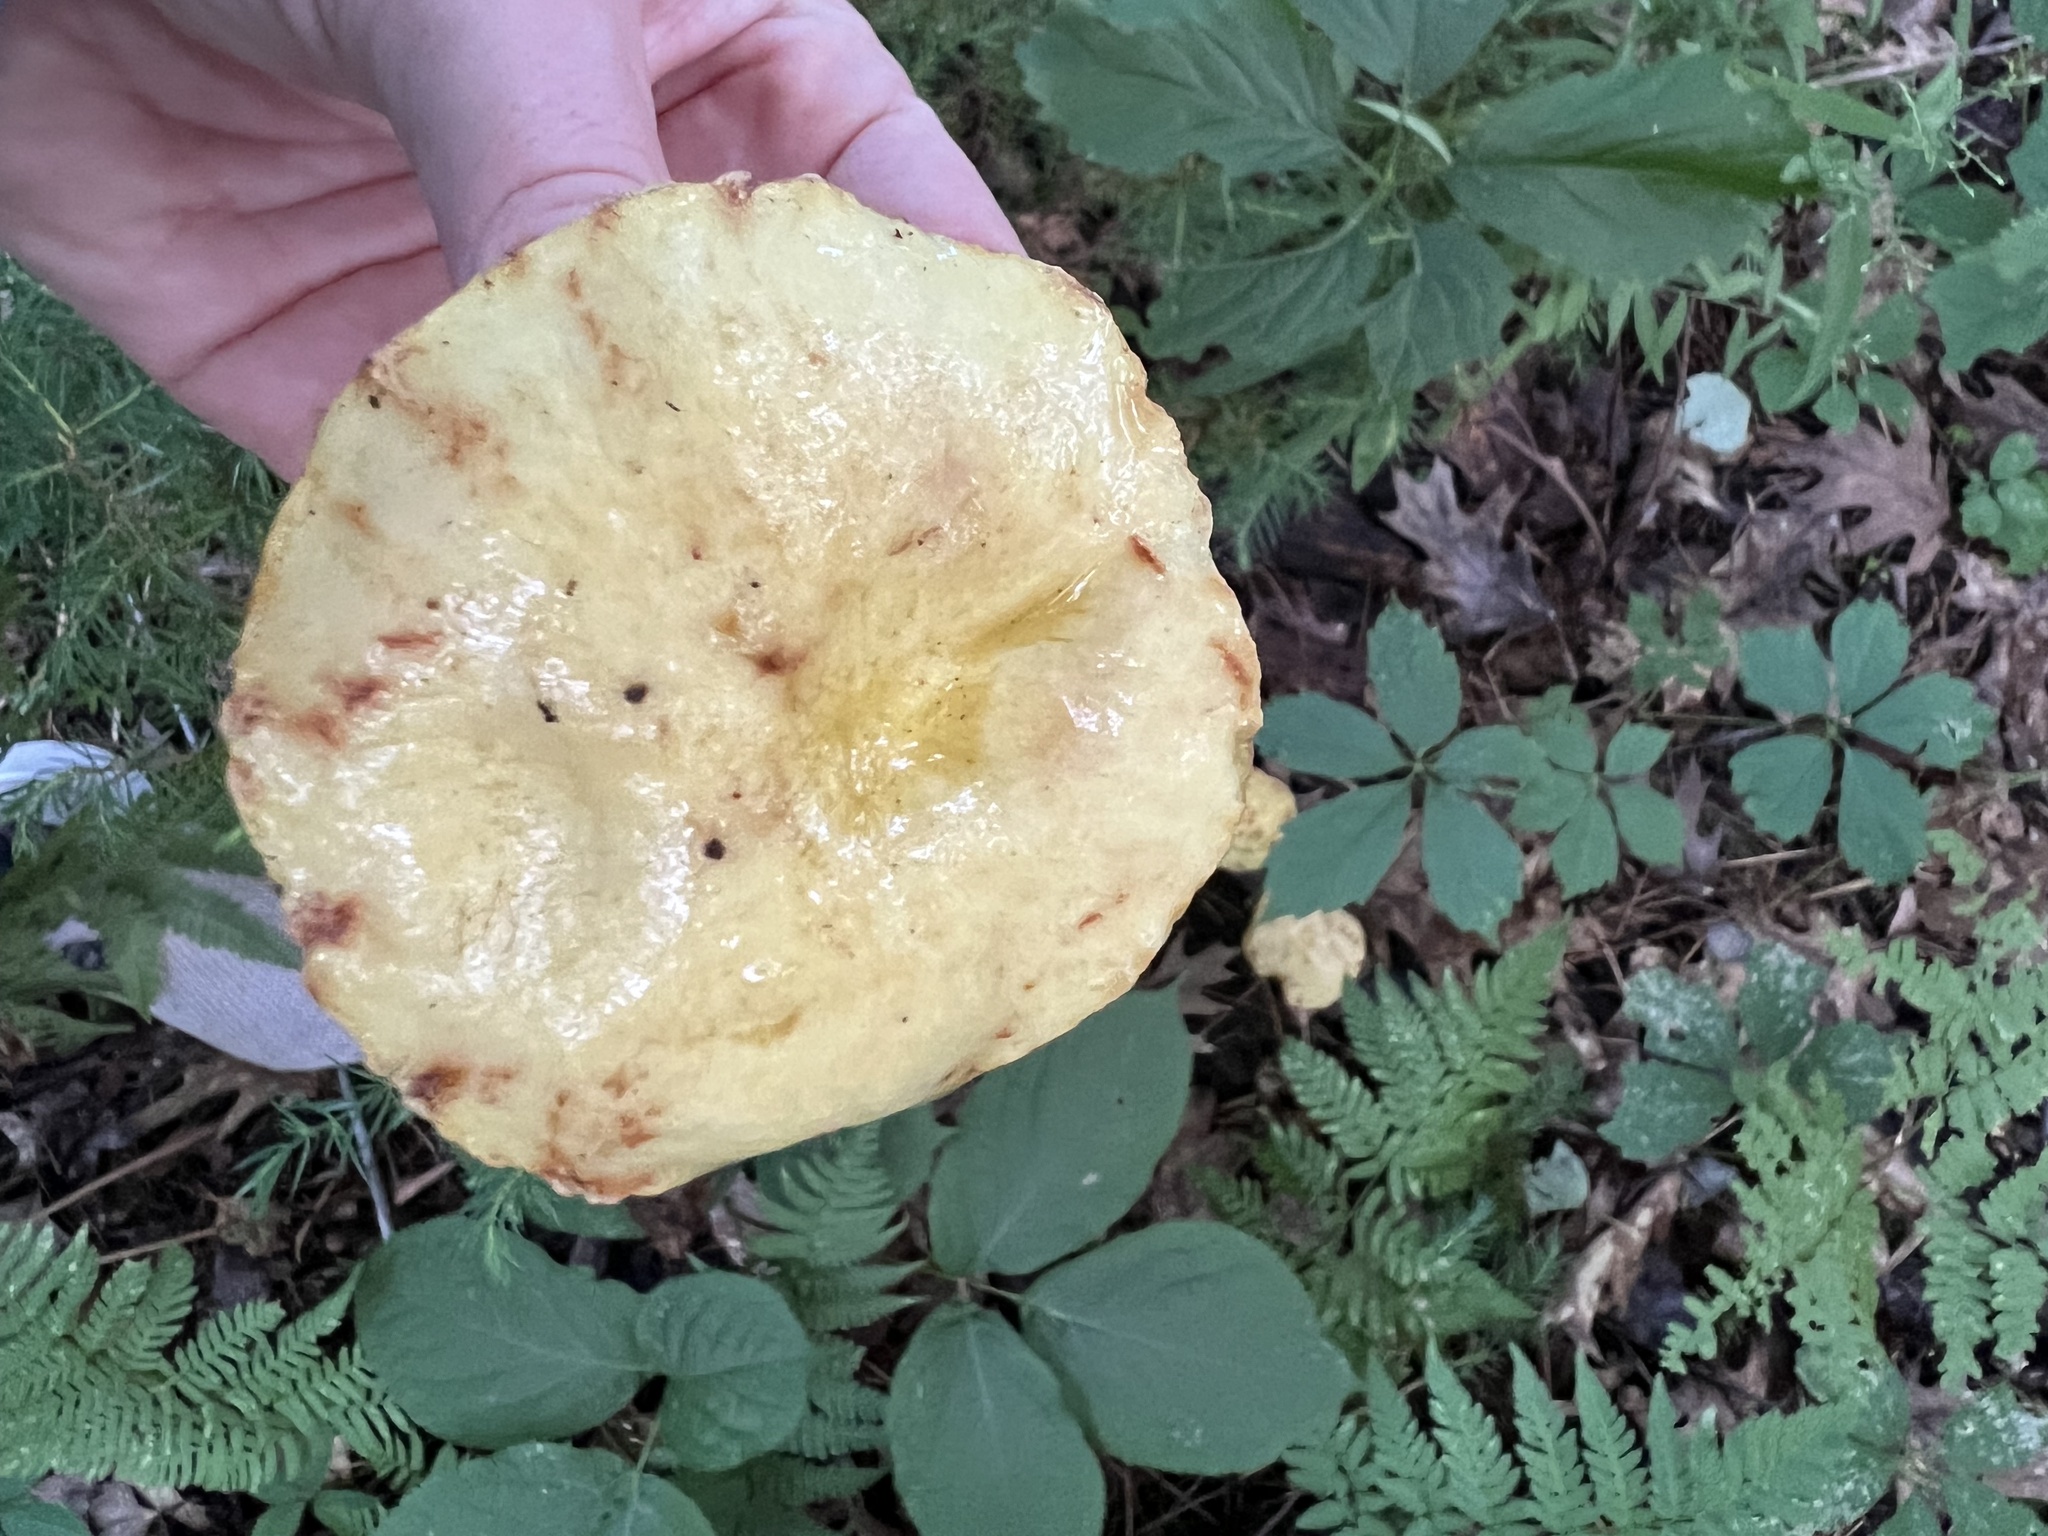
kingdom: Fungi
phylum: Basidiomycota
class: Agaricomycetes
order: Boletales
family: Suillaceae
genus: Suillus
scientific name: Suillus americanus
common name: Chicken fat mushroom
